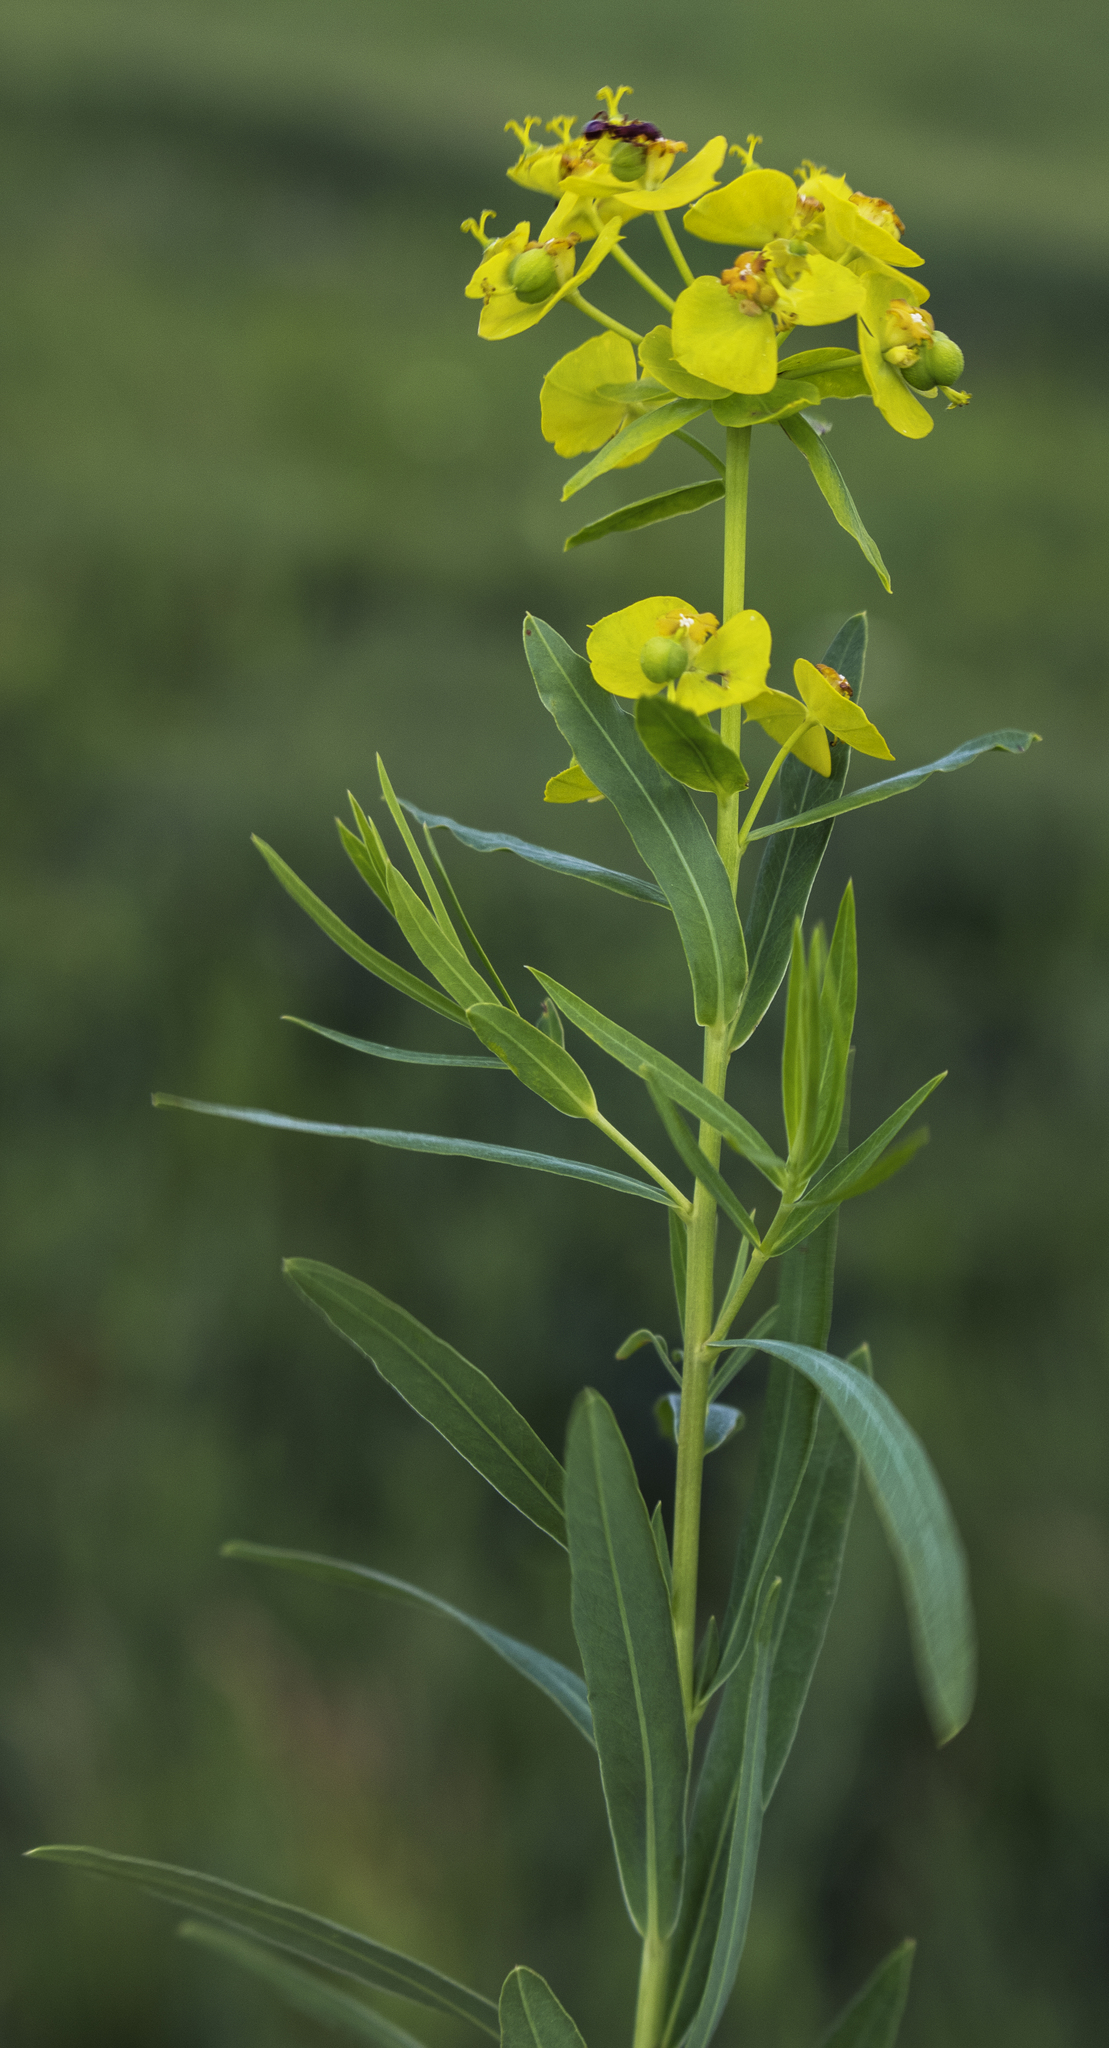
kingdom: Plantae
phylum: Tracheophyta
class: Magnoliopsida
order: Malpighiales
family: Euphorbiaceae
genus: Euphorbia
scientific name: Euphorbia virgata
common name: Leafy spurge
